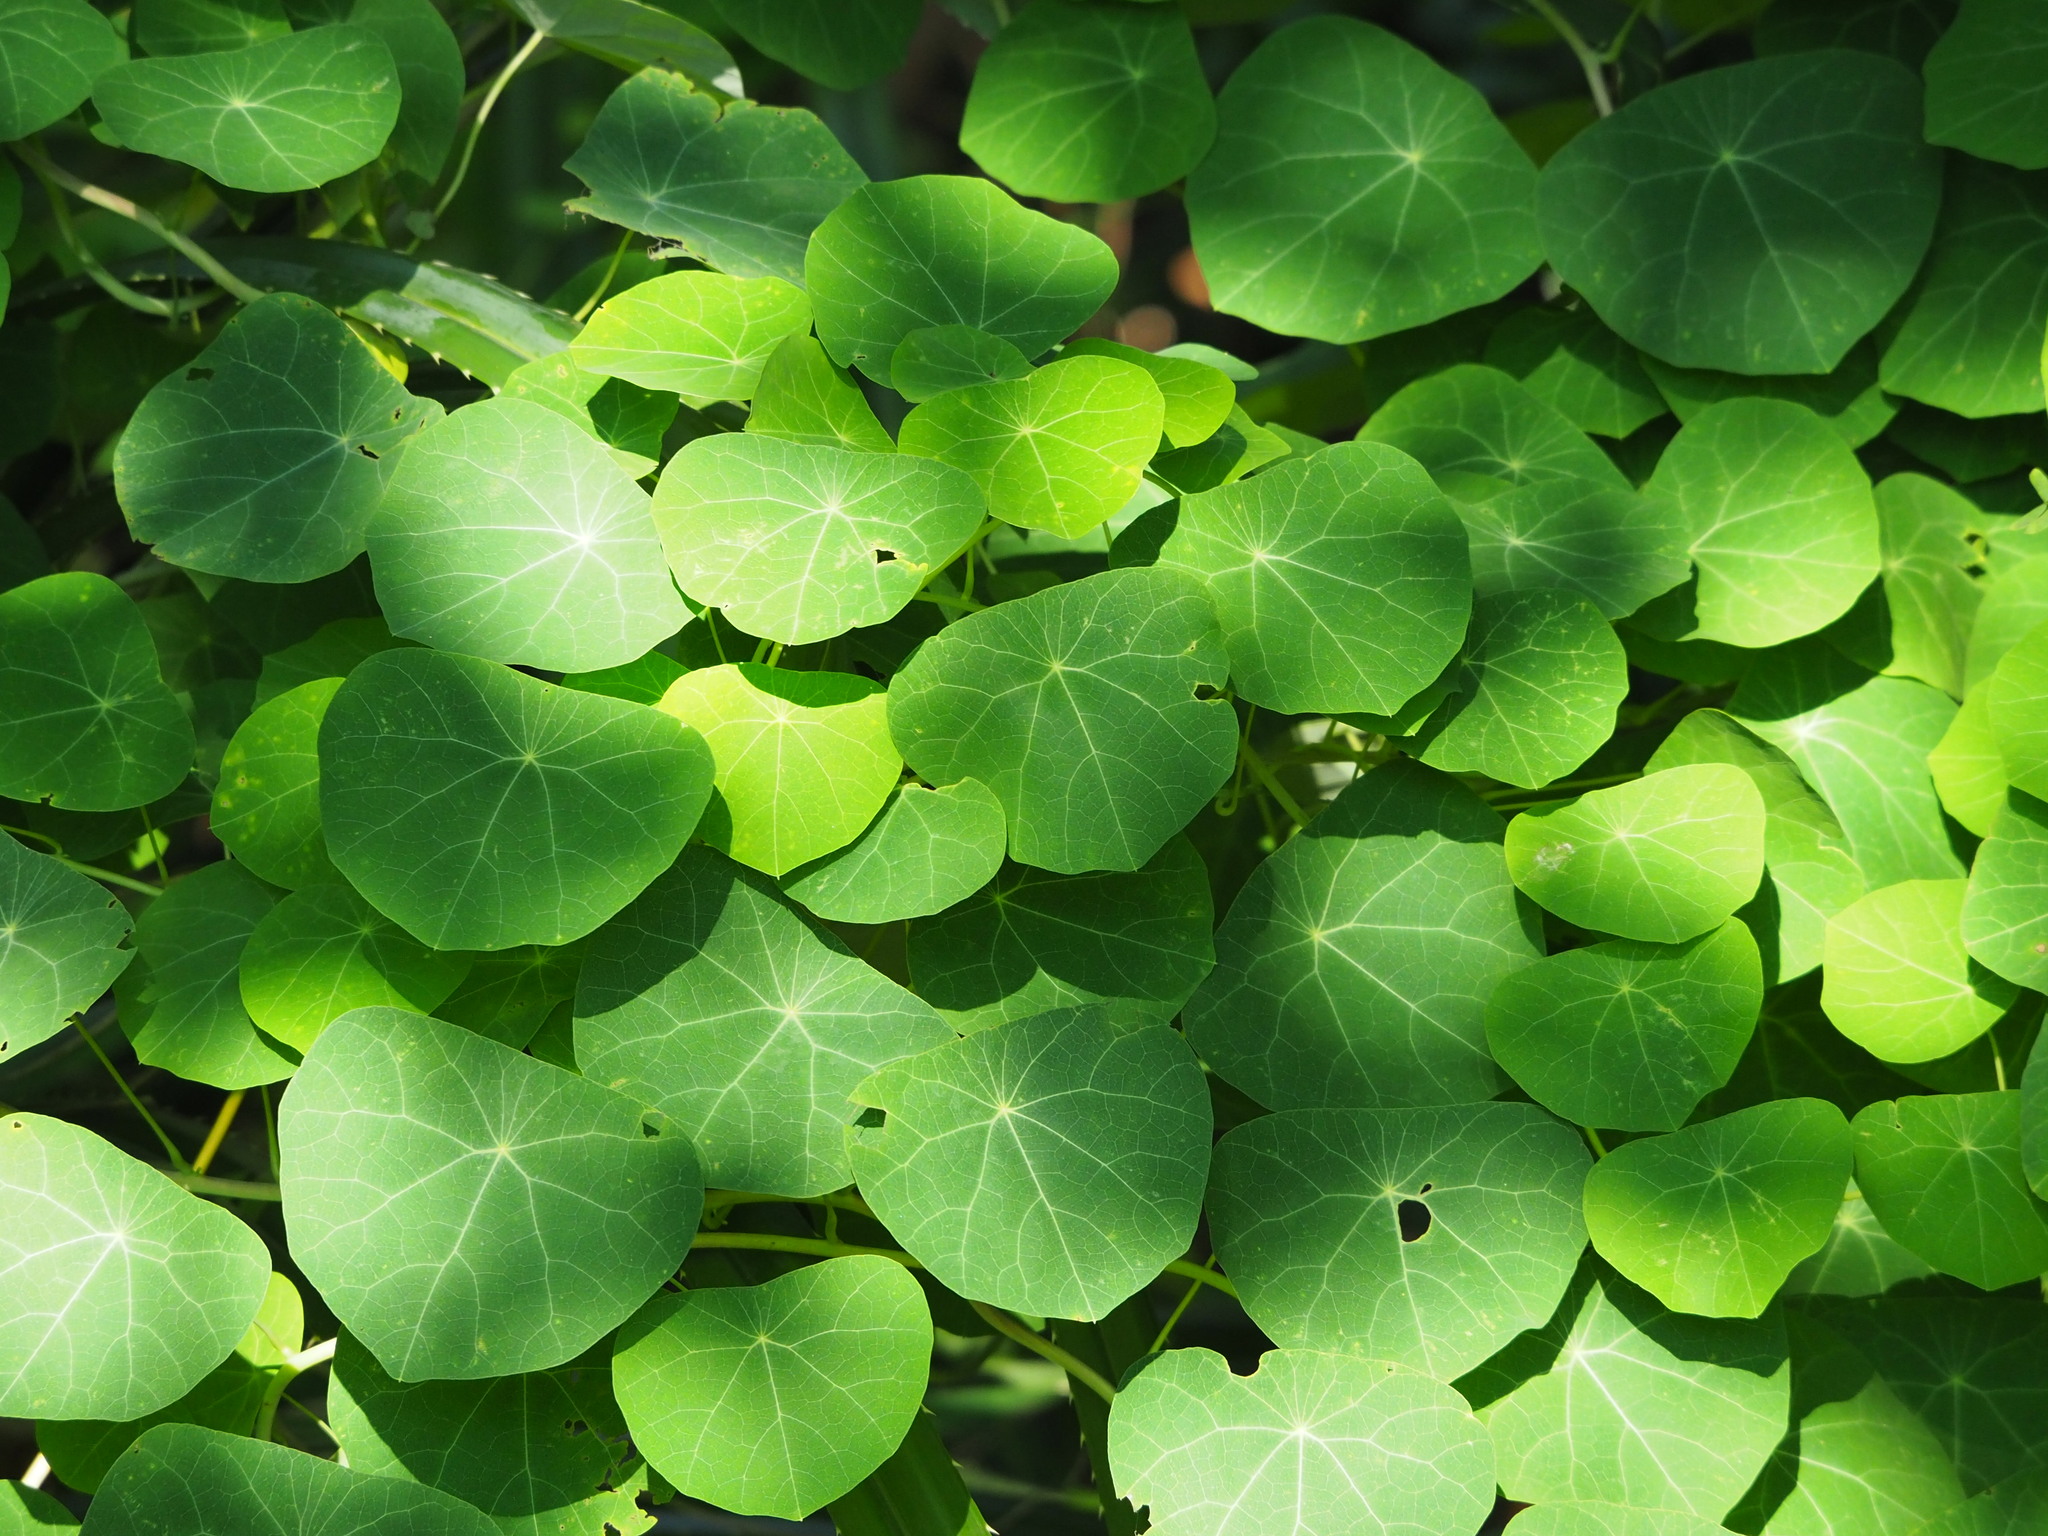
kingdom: Plantae
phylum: Tracheophyta
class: Magnoliopsida
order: Ranunculales
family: Menispermaceae
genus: Stephania
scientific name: Stephania cephalantha
